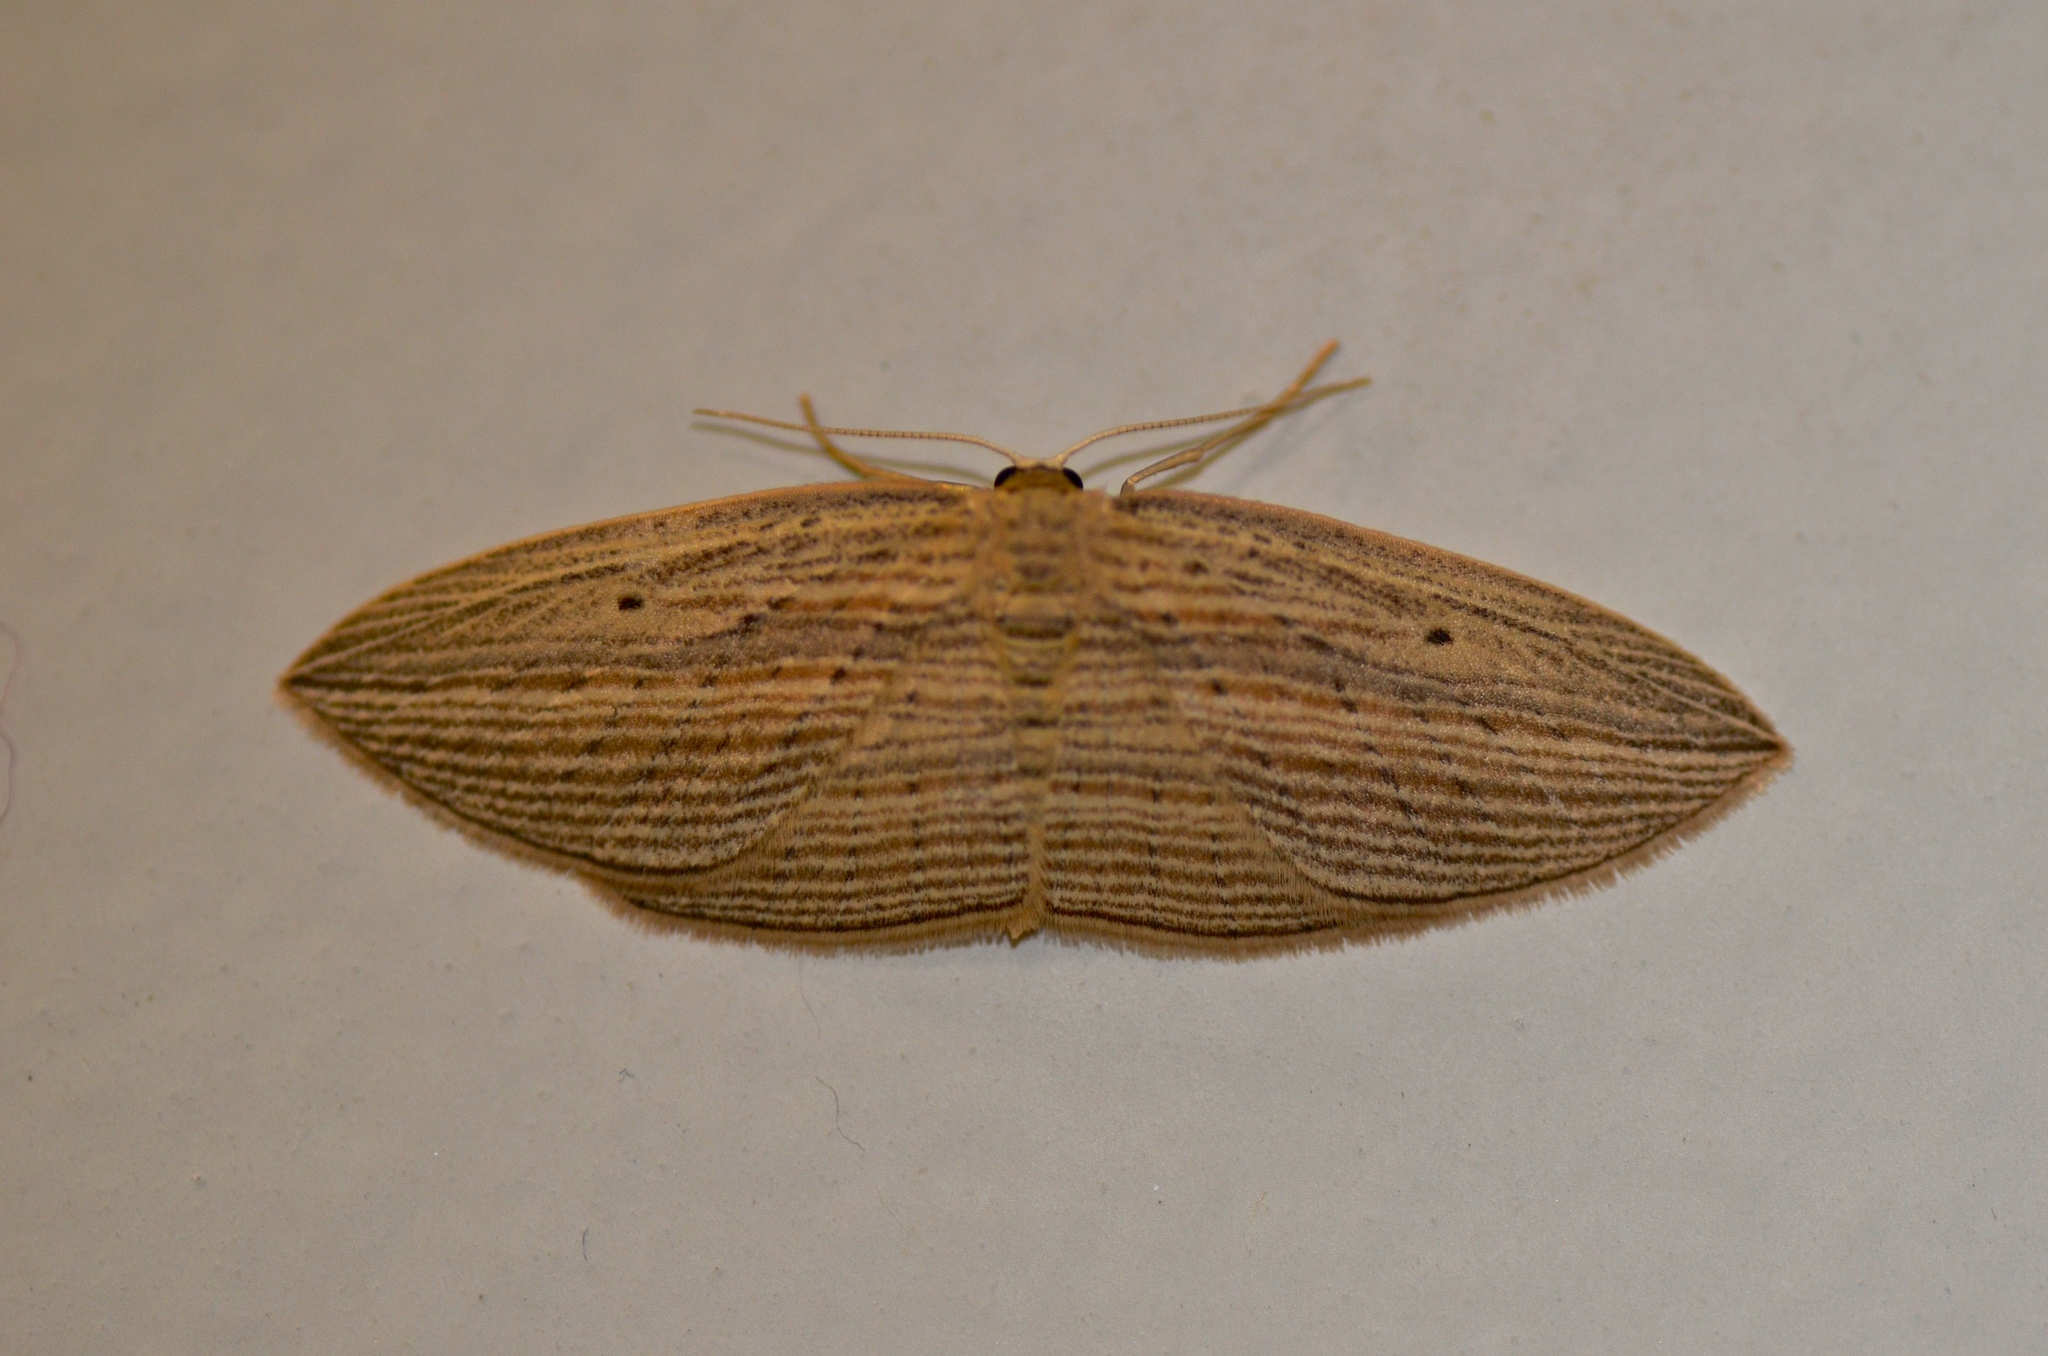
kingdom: Animalia
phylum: Arthropoda
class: Insecta
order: Lepidoptera
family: Geometridae
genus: Epiphryne
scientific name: Epiphryne verriculata
